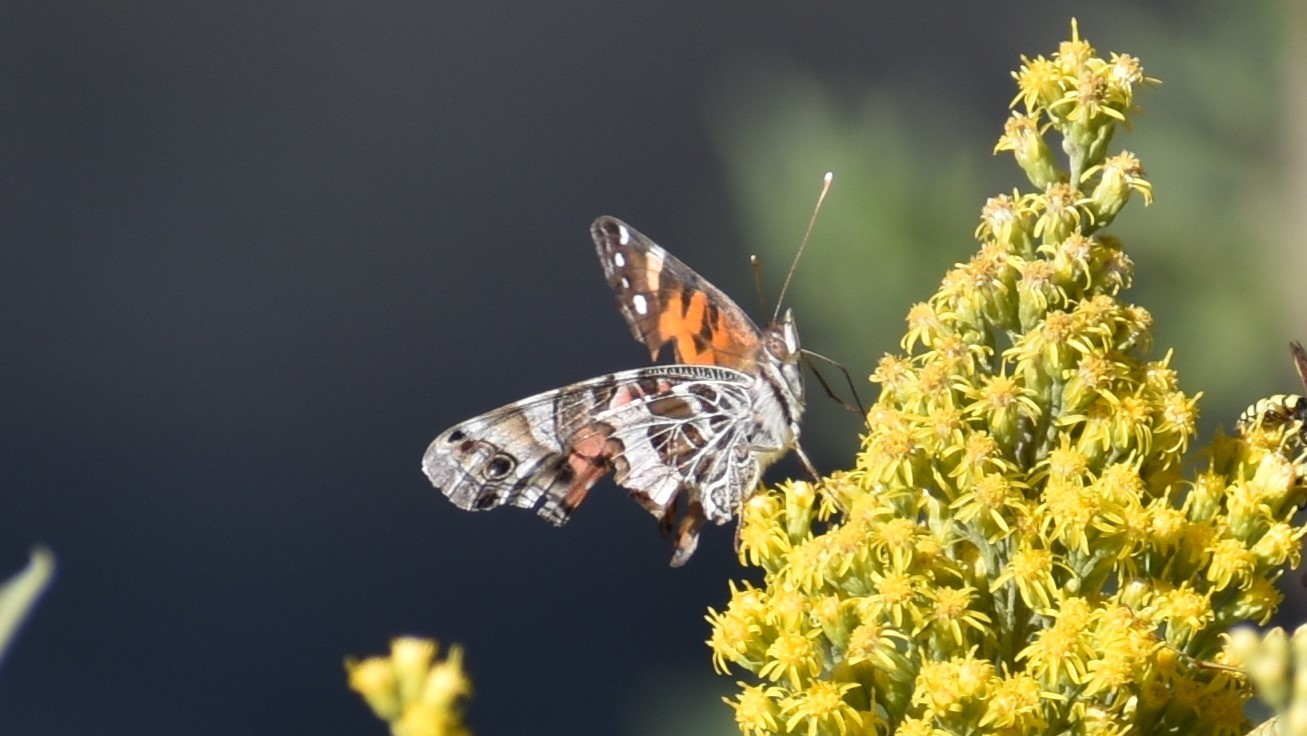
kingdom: Animalia
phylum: Arthropoda
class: Insecta
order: Lepidoptera
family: Nymphalidae
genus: Vanessa
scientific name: Vanessa virginiensis
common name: American lady
